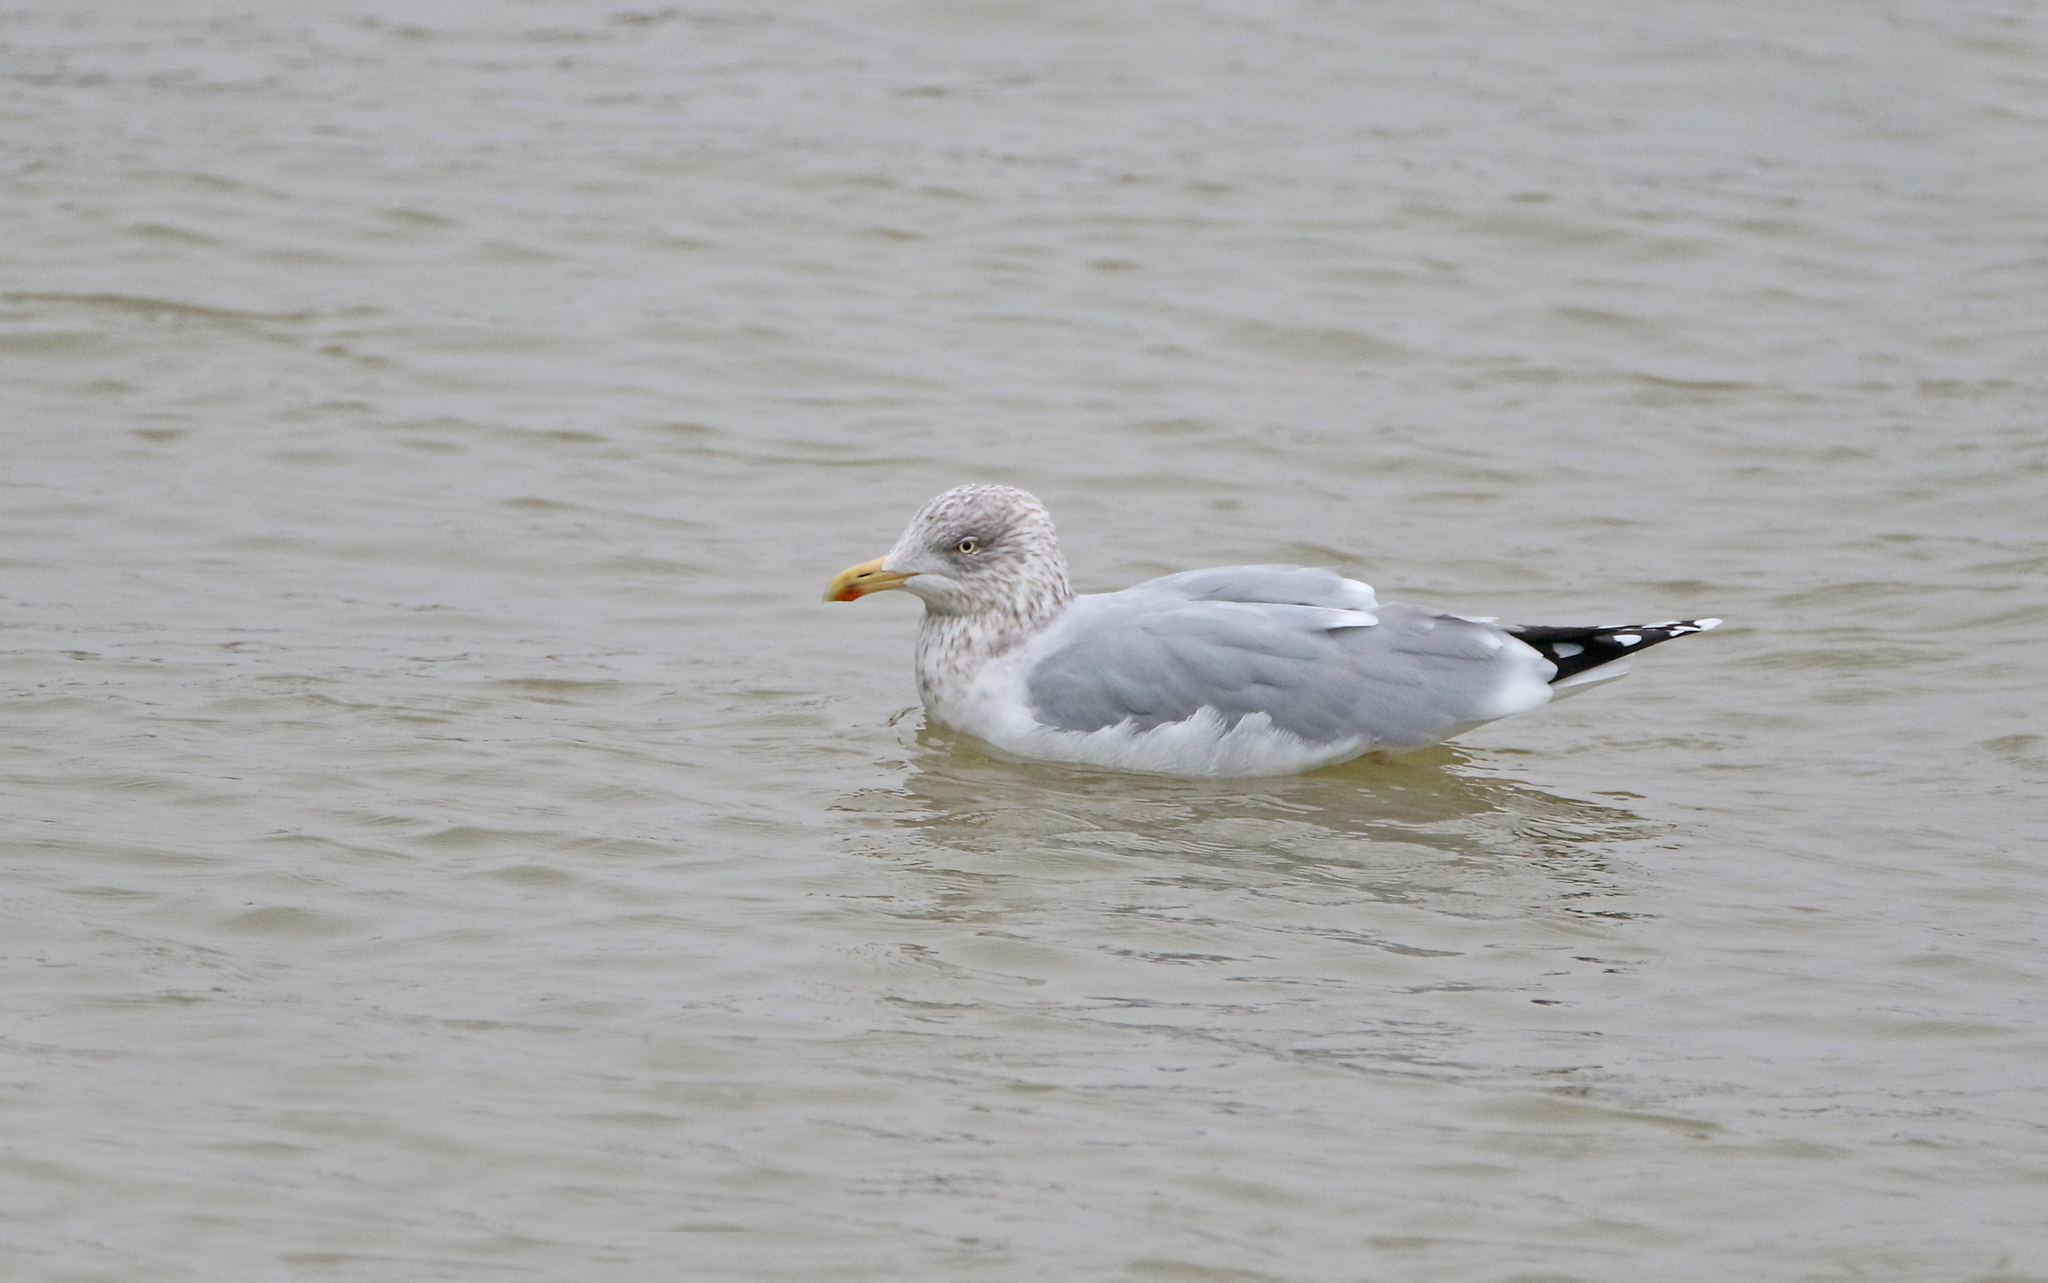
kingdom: Animalia
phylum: Chordata
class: Aves
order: Charadriiformes
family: Laridae
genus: Larus
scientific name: Larus argentatus
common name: Herring gull
